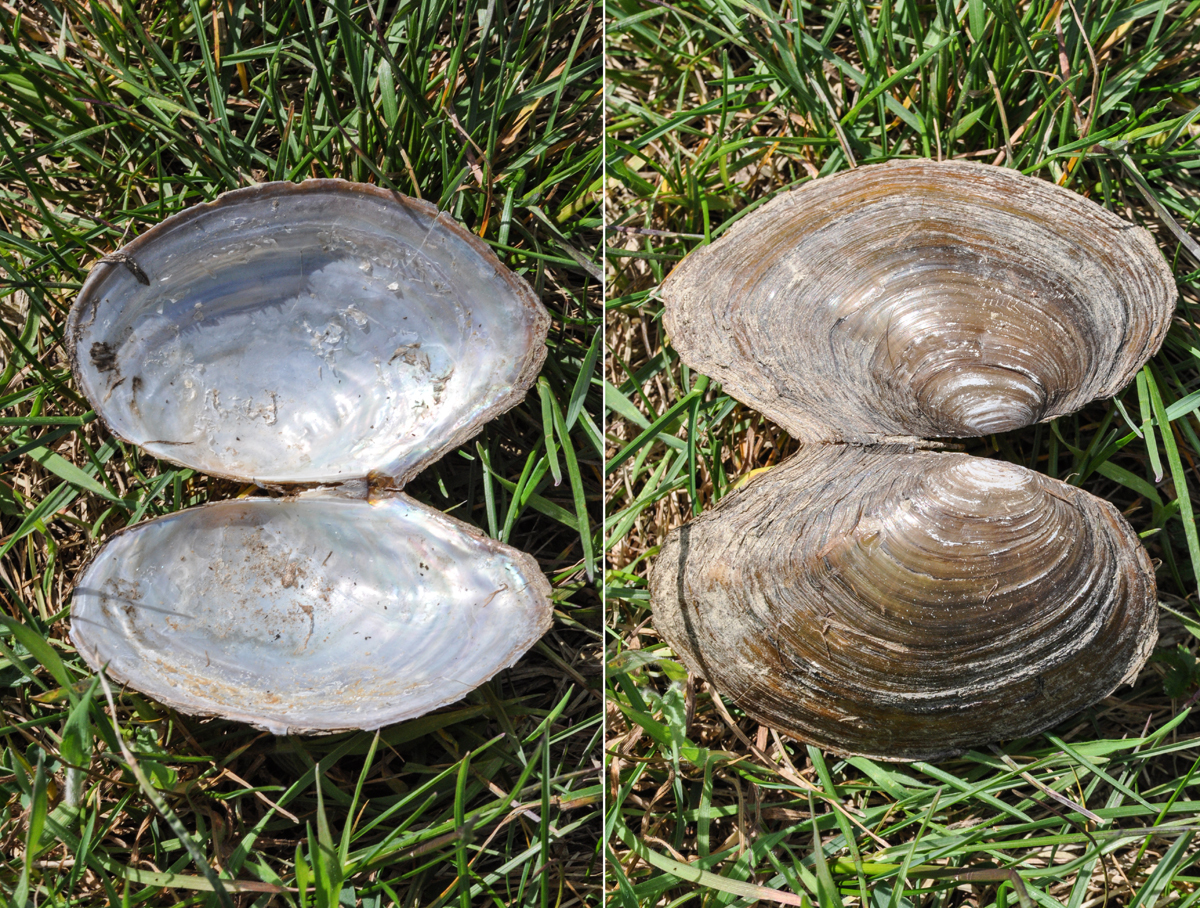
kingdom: Animalia
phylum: Mollusca
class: Bivalvia
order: Unionida
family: Unionidae
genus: Sinanodonta
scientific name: Sinanodonta woodiana
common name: Chinese pond mussel
